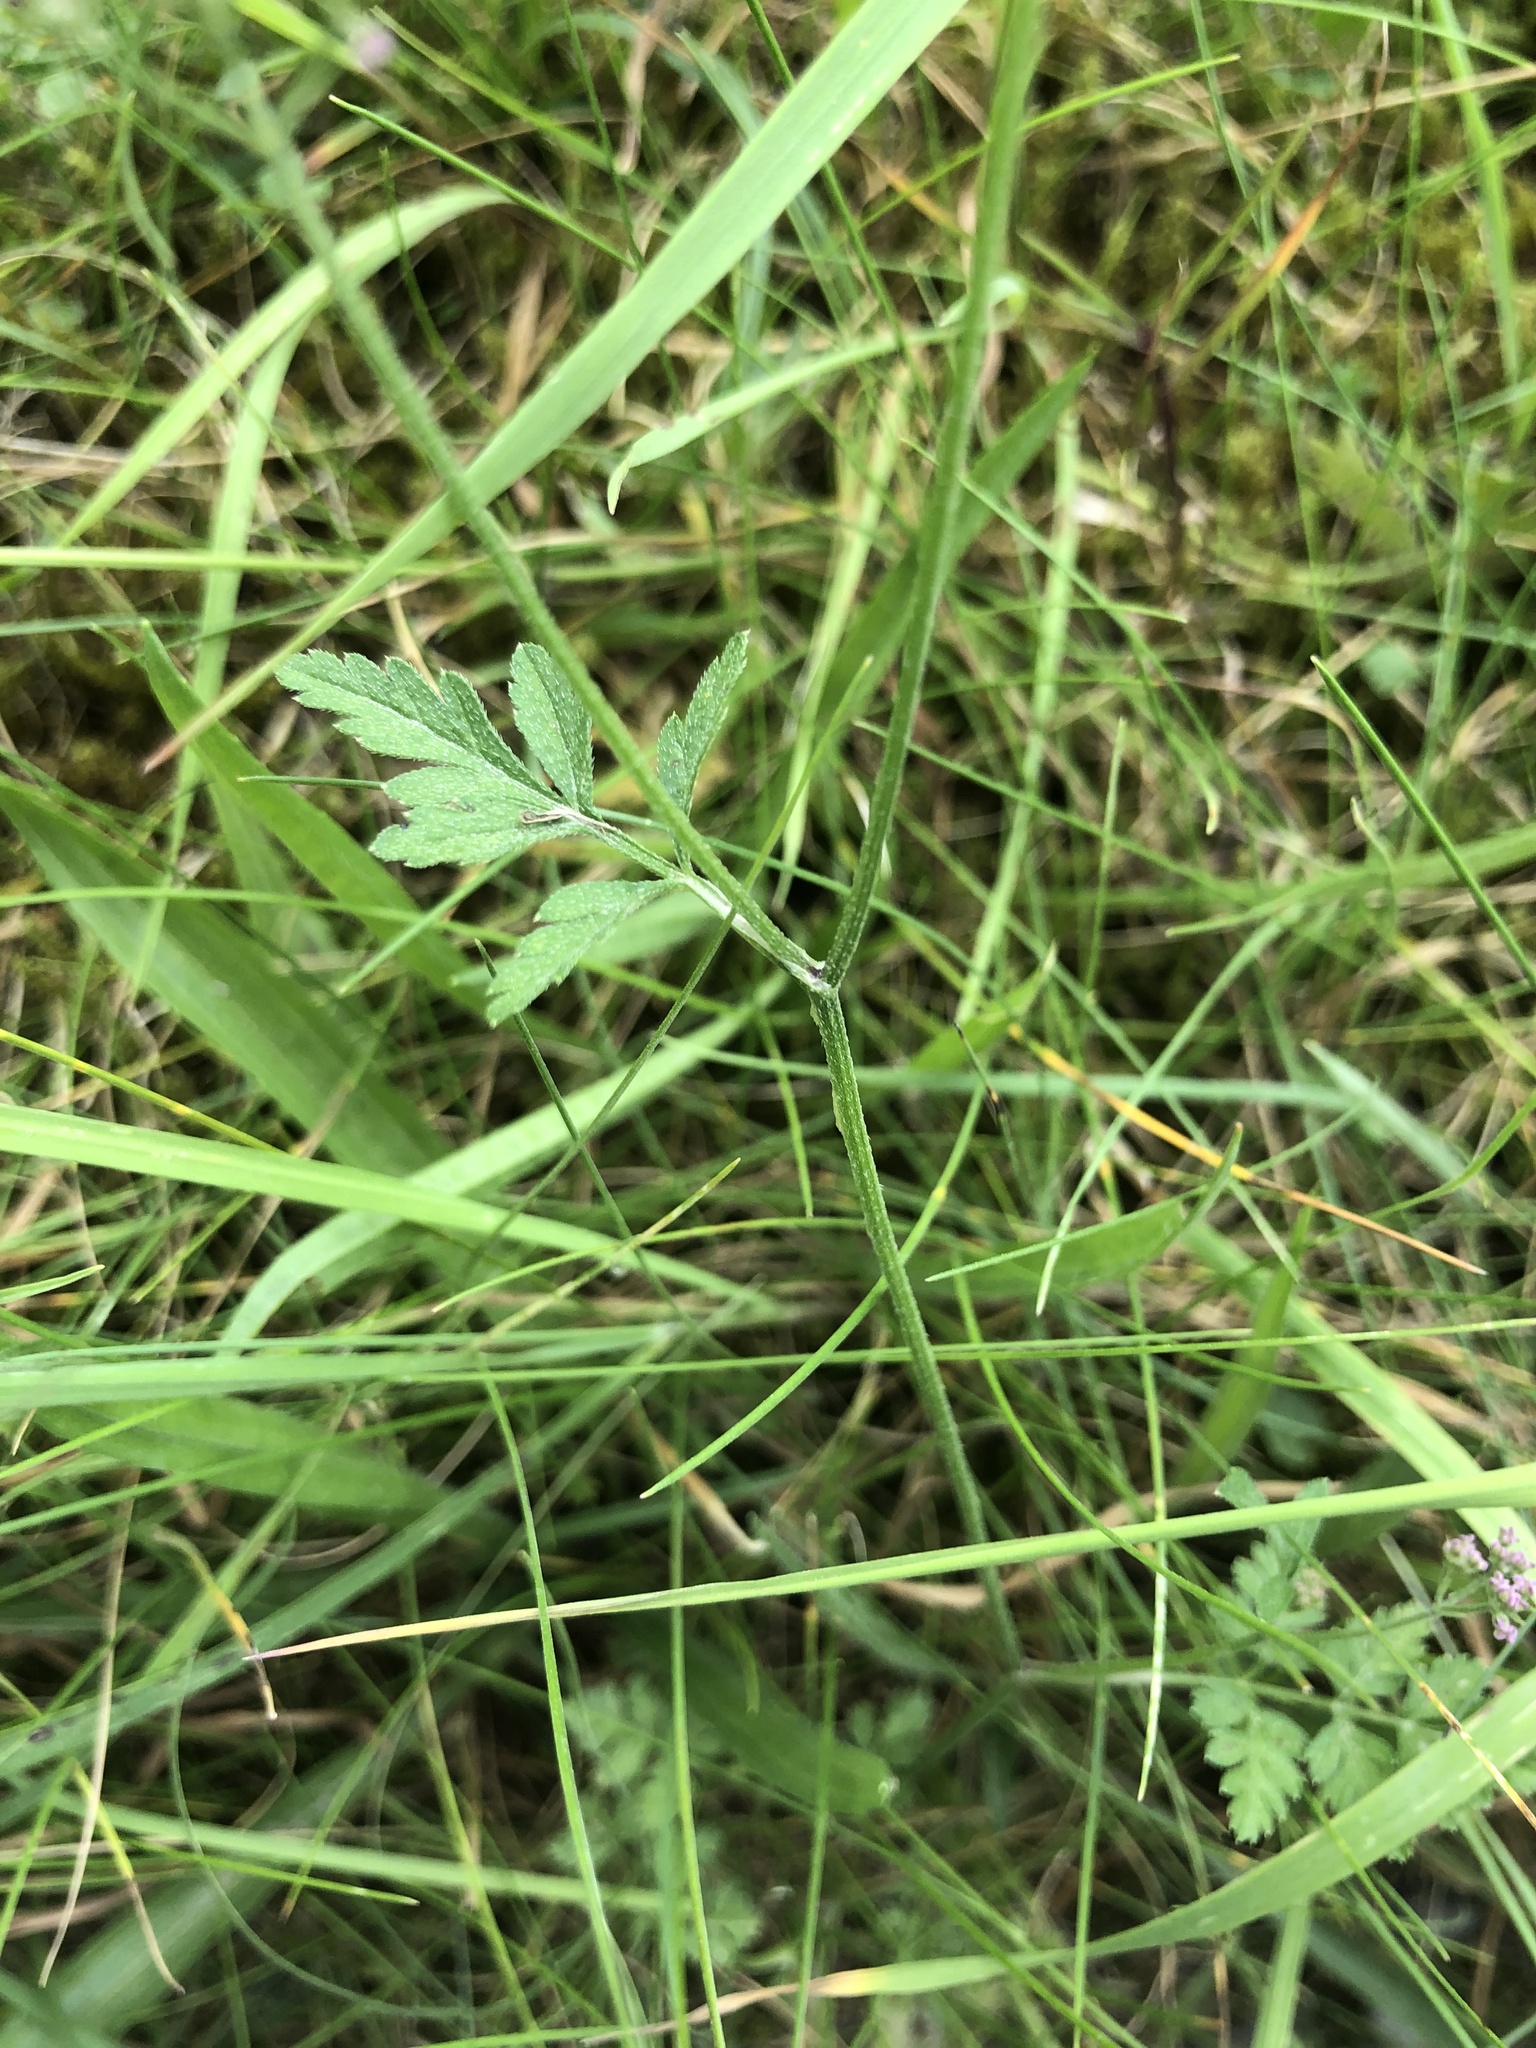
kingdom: Plantae
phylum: Tracheophyta
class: Magnoliopsida
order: Apiales
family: Apiaceae
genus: Torilis
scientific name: Torilis japonica
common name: Upright hedge-parsley
